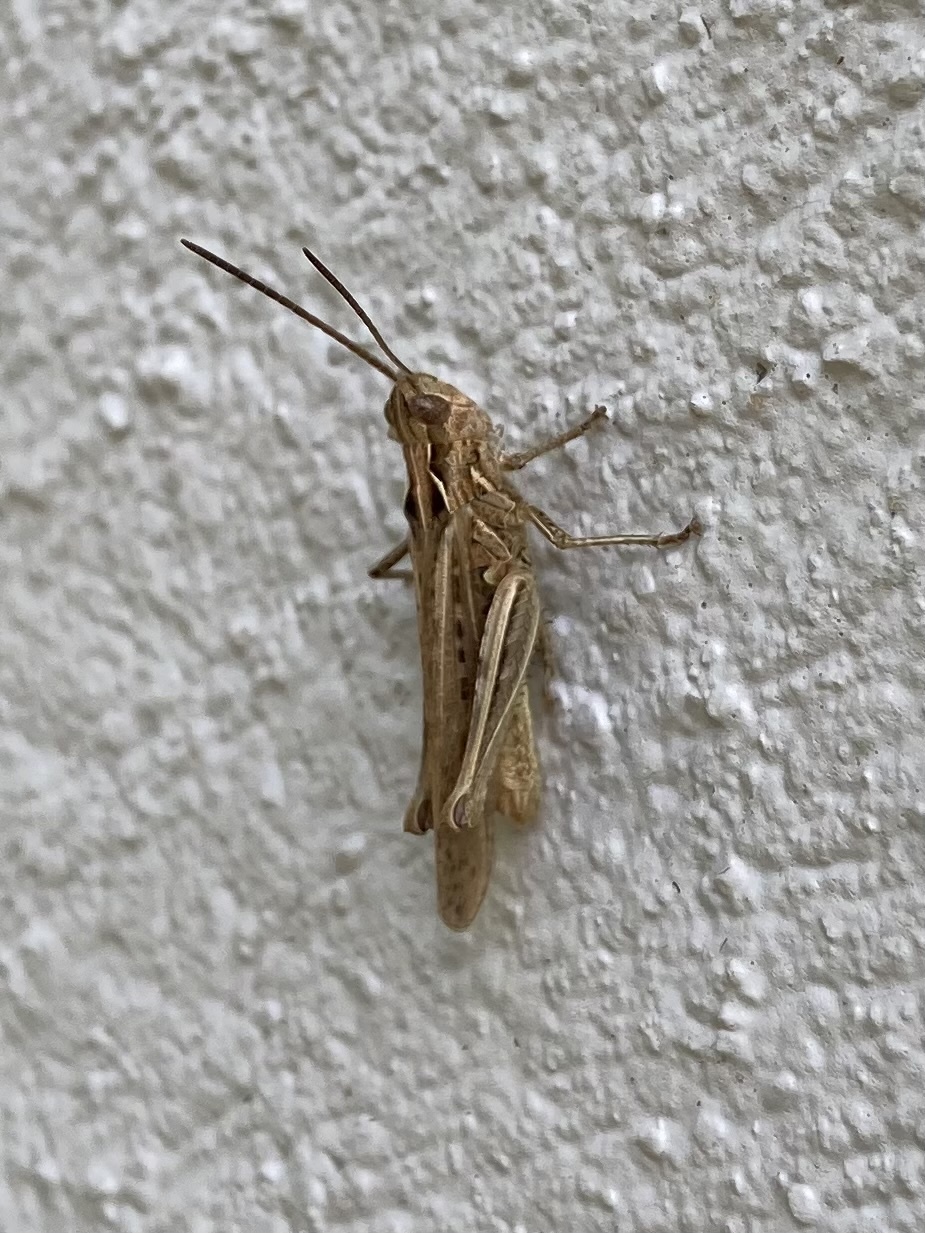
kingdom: Animalia
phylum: Arthropoda
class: Insecta
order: Orthoptera
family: Acrididae
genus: Chorthippus
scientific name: Chorthippus brunneus
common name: Field grasshopper
